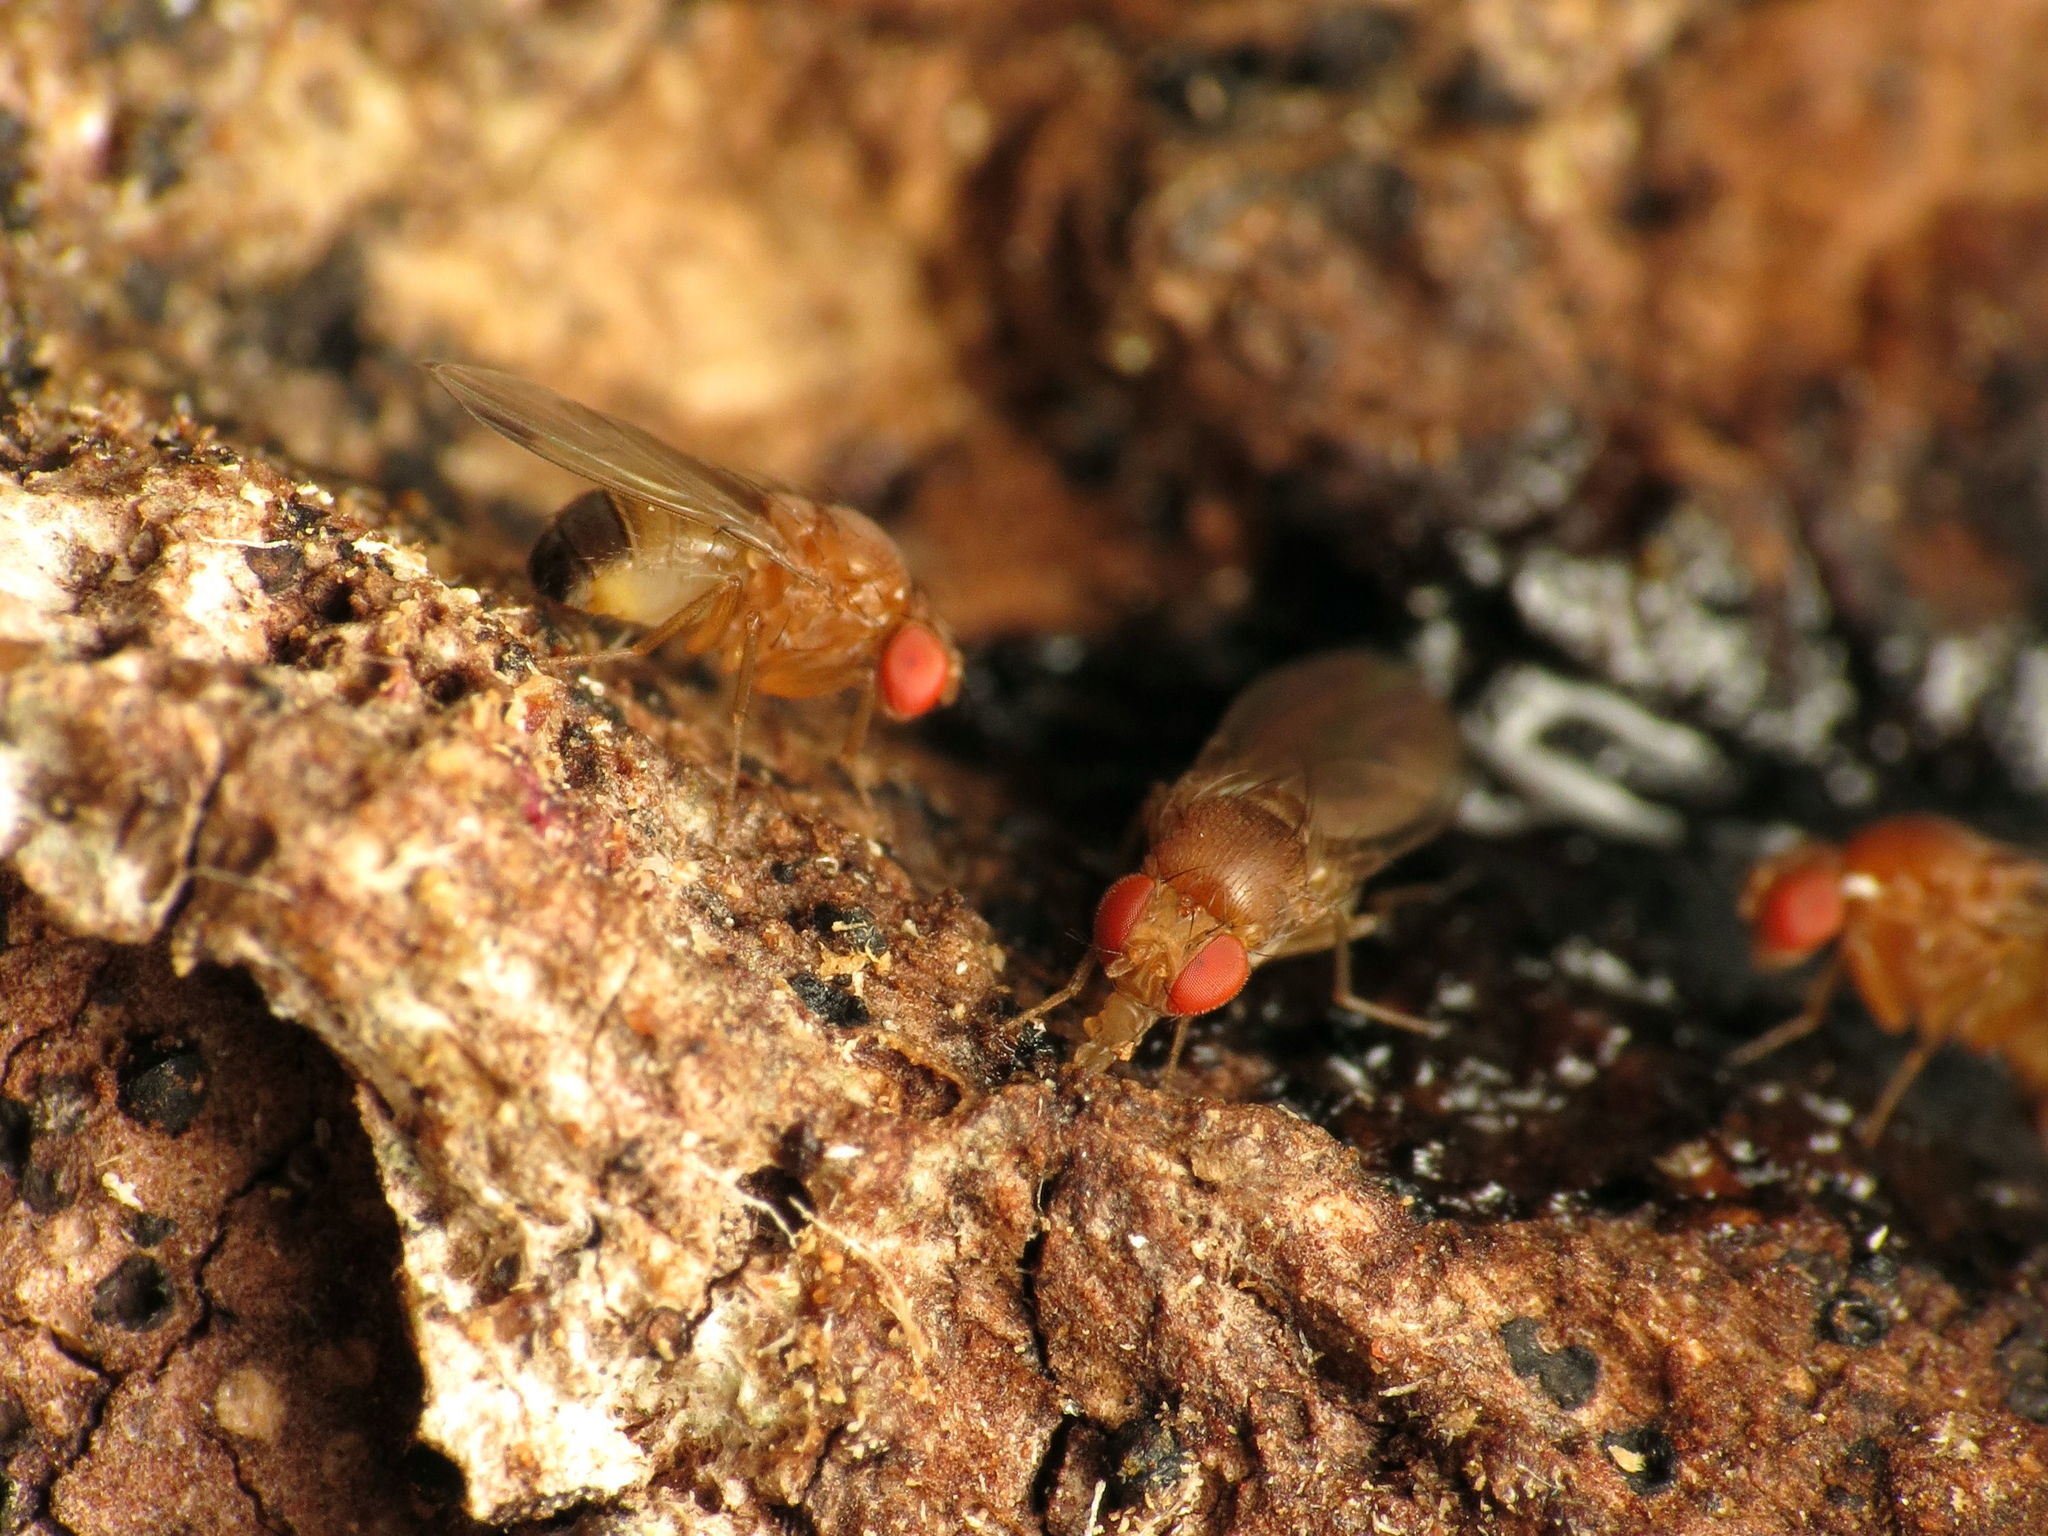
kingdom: Animalia
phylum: Arthropoda
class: Insecta
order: Diptera
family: Drosophilidae
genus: Drosophila
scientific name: Drosophila suzukii
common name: Spotted-wing drosophila
